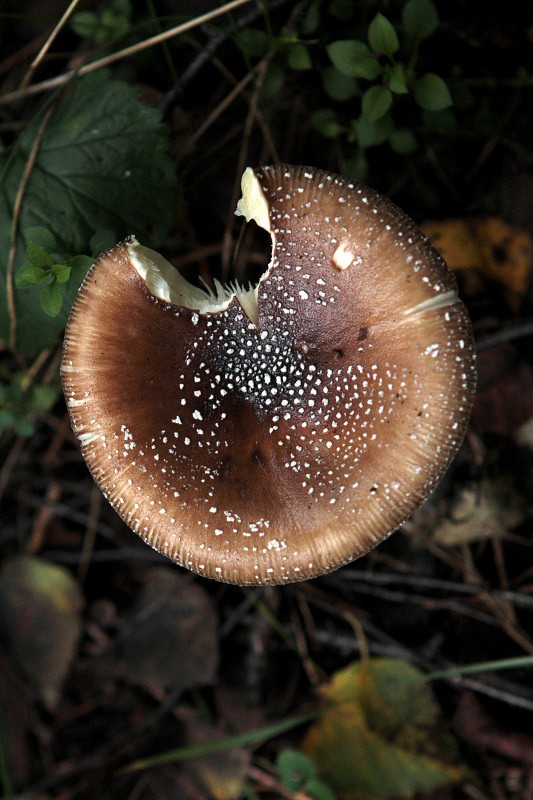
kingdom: Fungi
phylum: Basidiomycota
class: Agaricomycetes
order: Agaricales
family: Amanitaceae
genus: Amanita
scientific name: Amanita pantherina
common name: Panthercap
